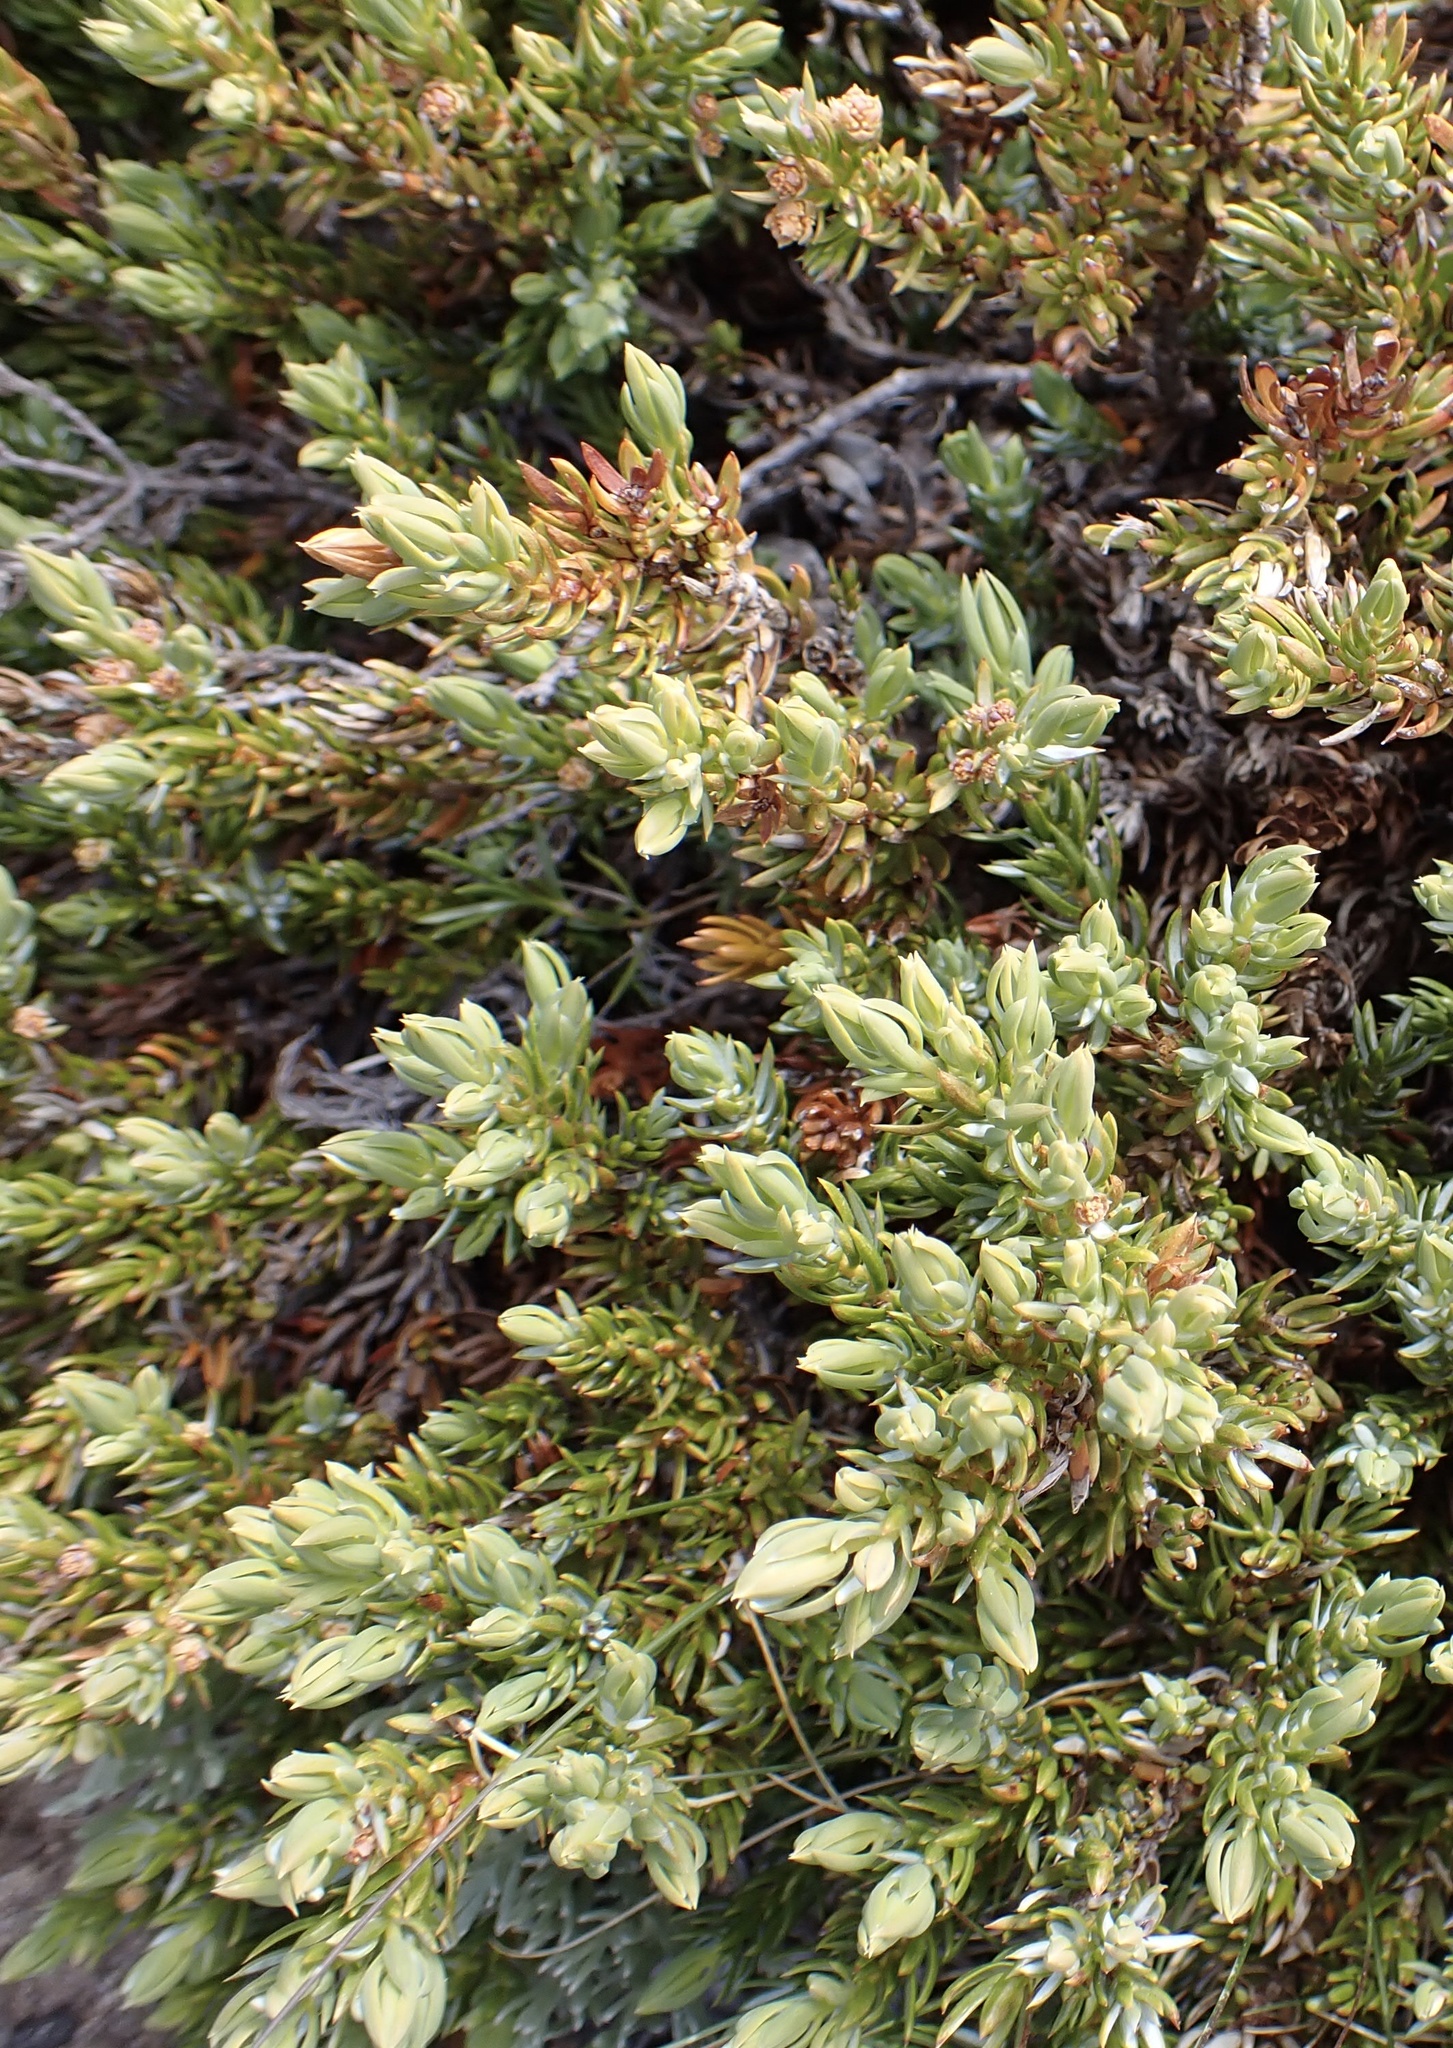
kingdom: Plantae
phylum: Tracheophyta
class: Pinopsida
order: Pinales
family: Cupressaceae
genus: Juniperus
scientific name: Juniperus communis
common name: Common juniper
